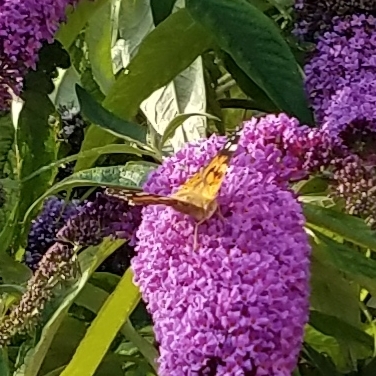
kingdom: Animalia
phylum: Arthropoda
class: Insecta
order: Lepidoptera
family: Nymphalidae
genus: Vanessa
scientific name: Vanessa cardui
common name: Painted lady
